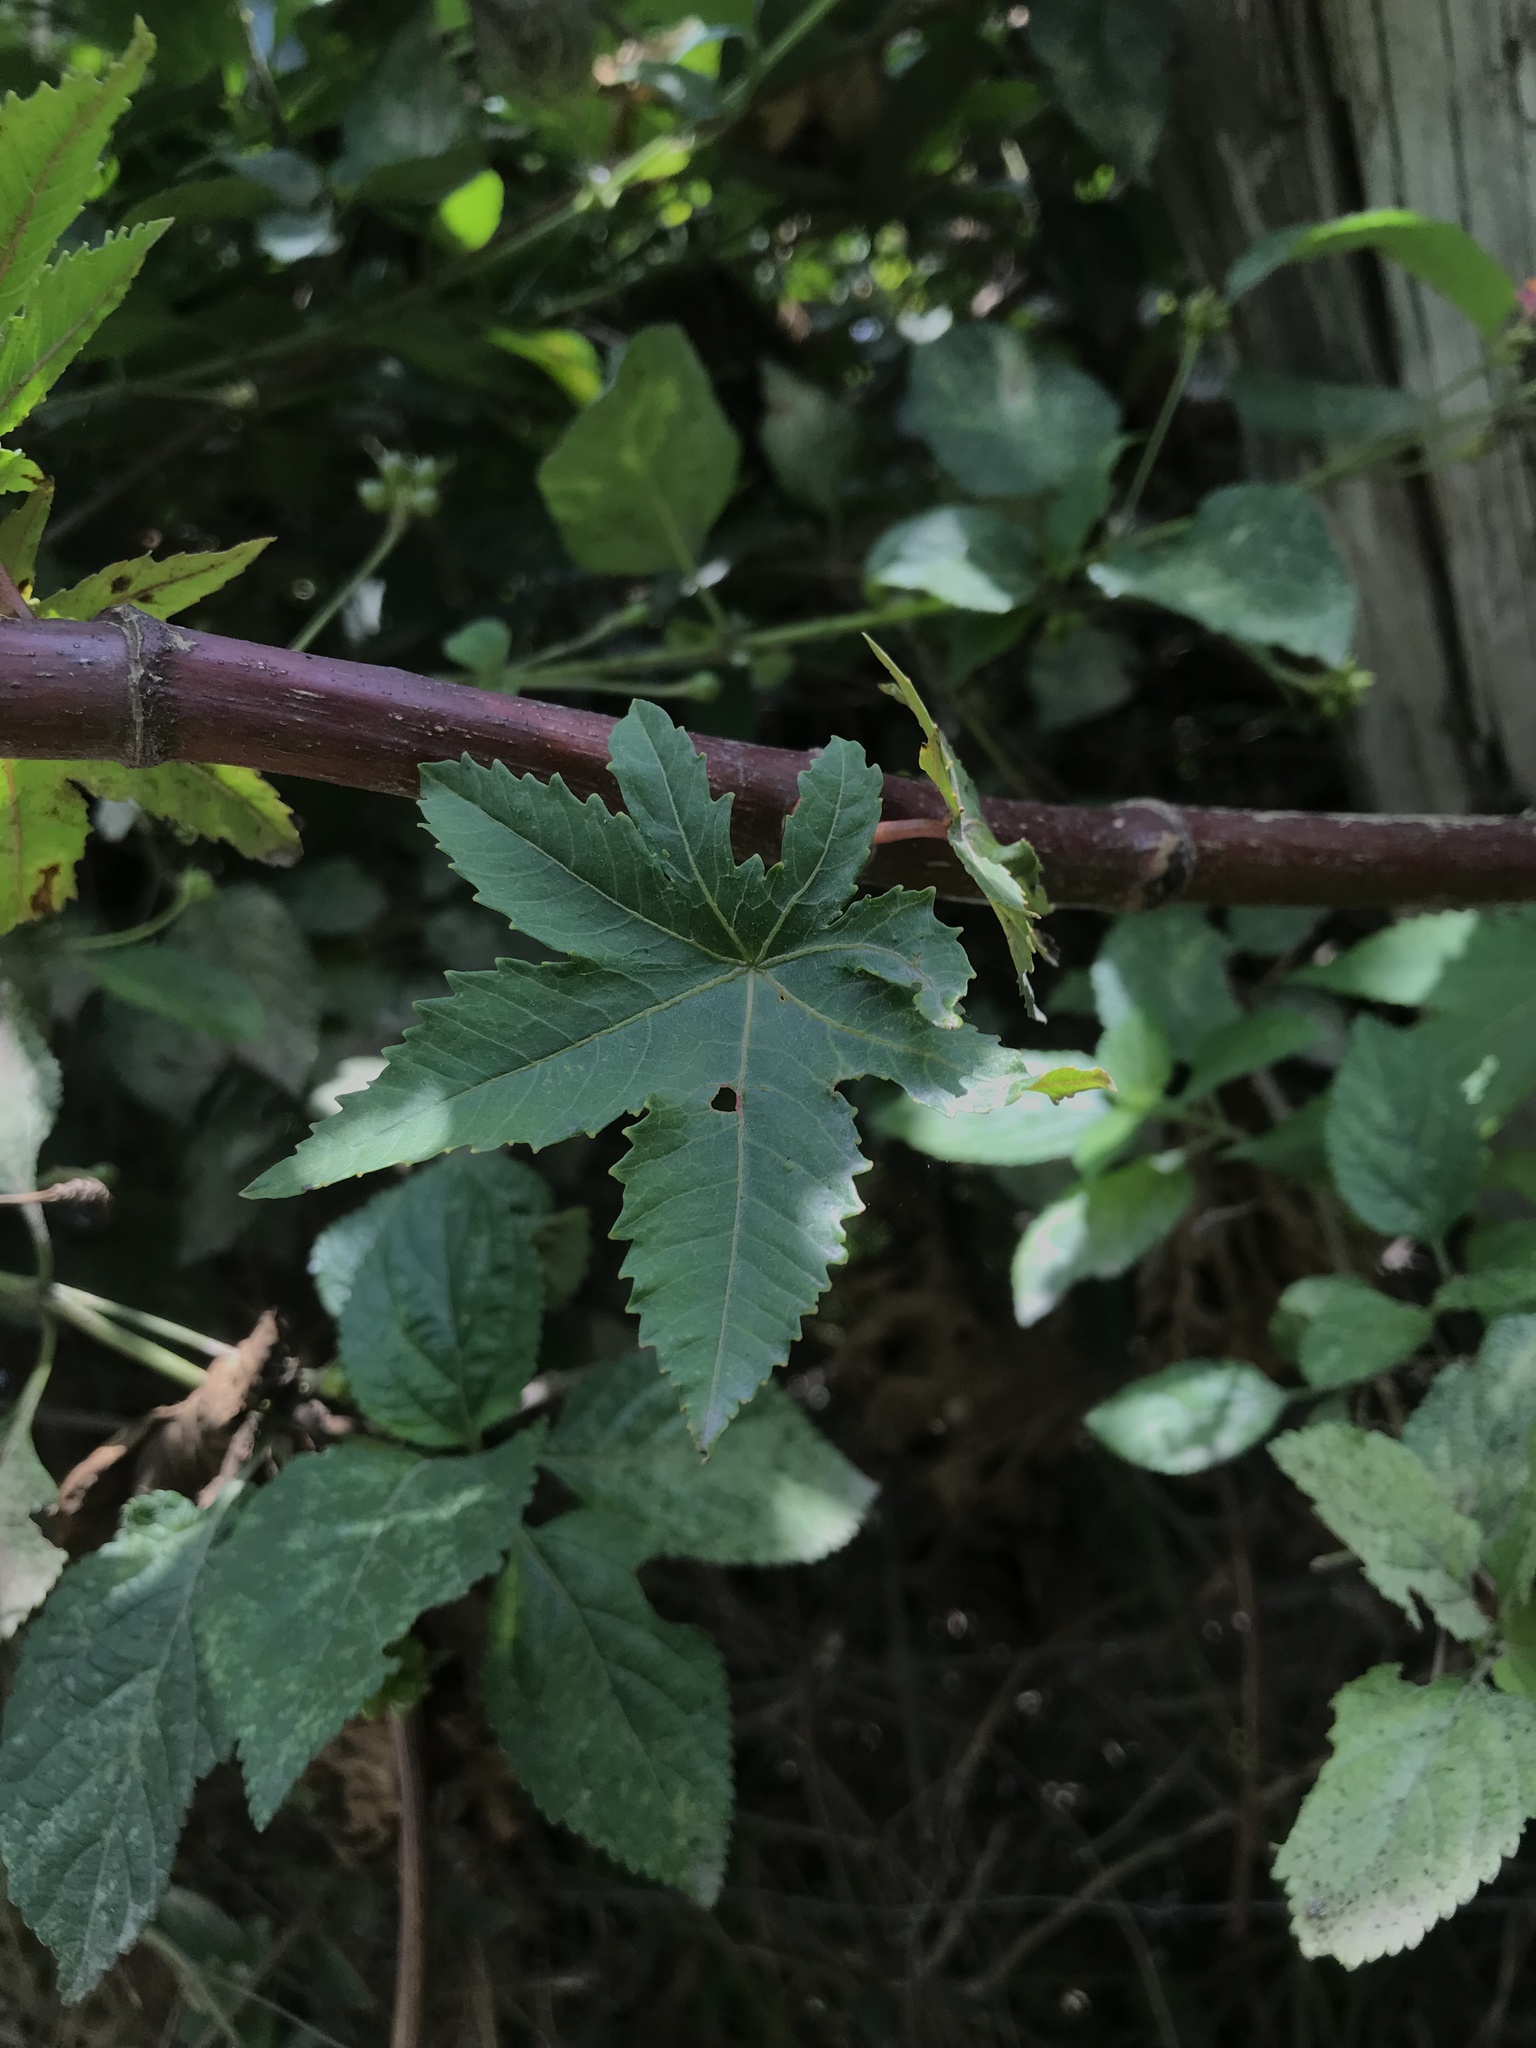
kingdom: Plantae
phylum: Tracheophyta
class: Magnoliopsida
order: Malpighiales
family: Euphorbiaceae
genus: Ricinus
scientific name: Ricinus communis
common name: Castor-oil-plant
